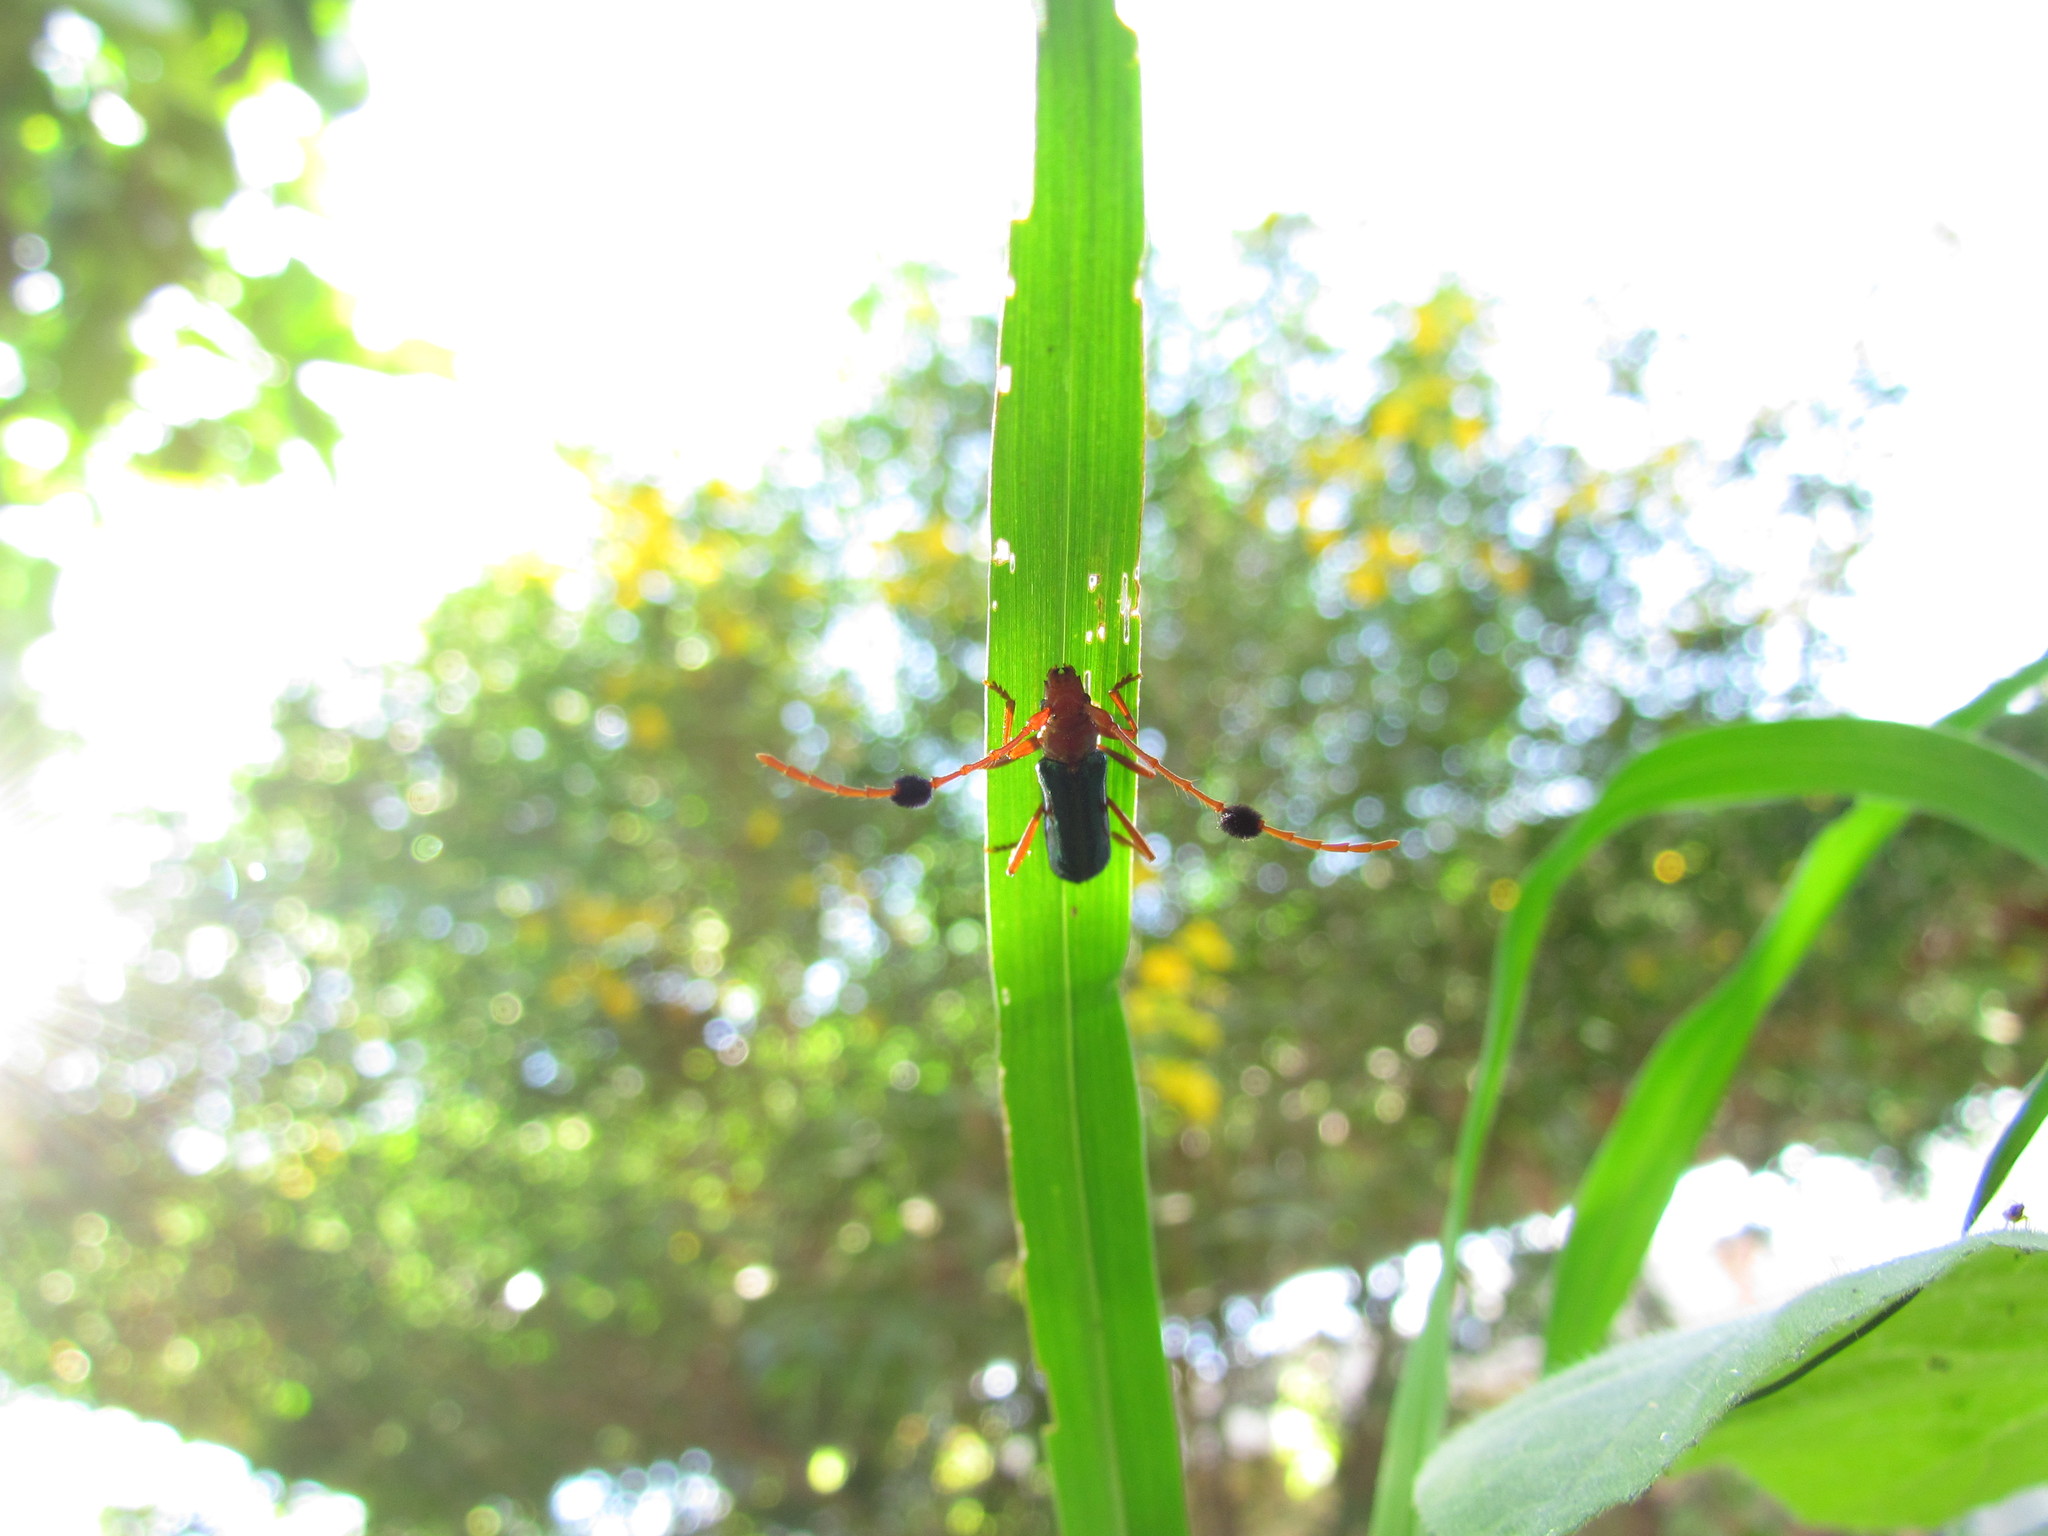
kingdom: Animalia
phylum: Arthropoda
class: Insecta
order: Coleoptera
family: Cerambycidae
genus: Compsocerus
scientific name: Compsocerus violaceus
